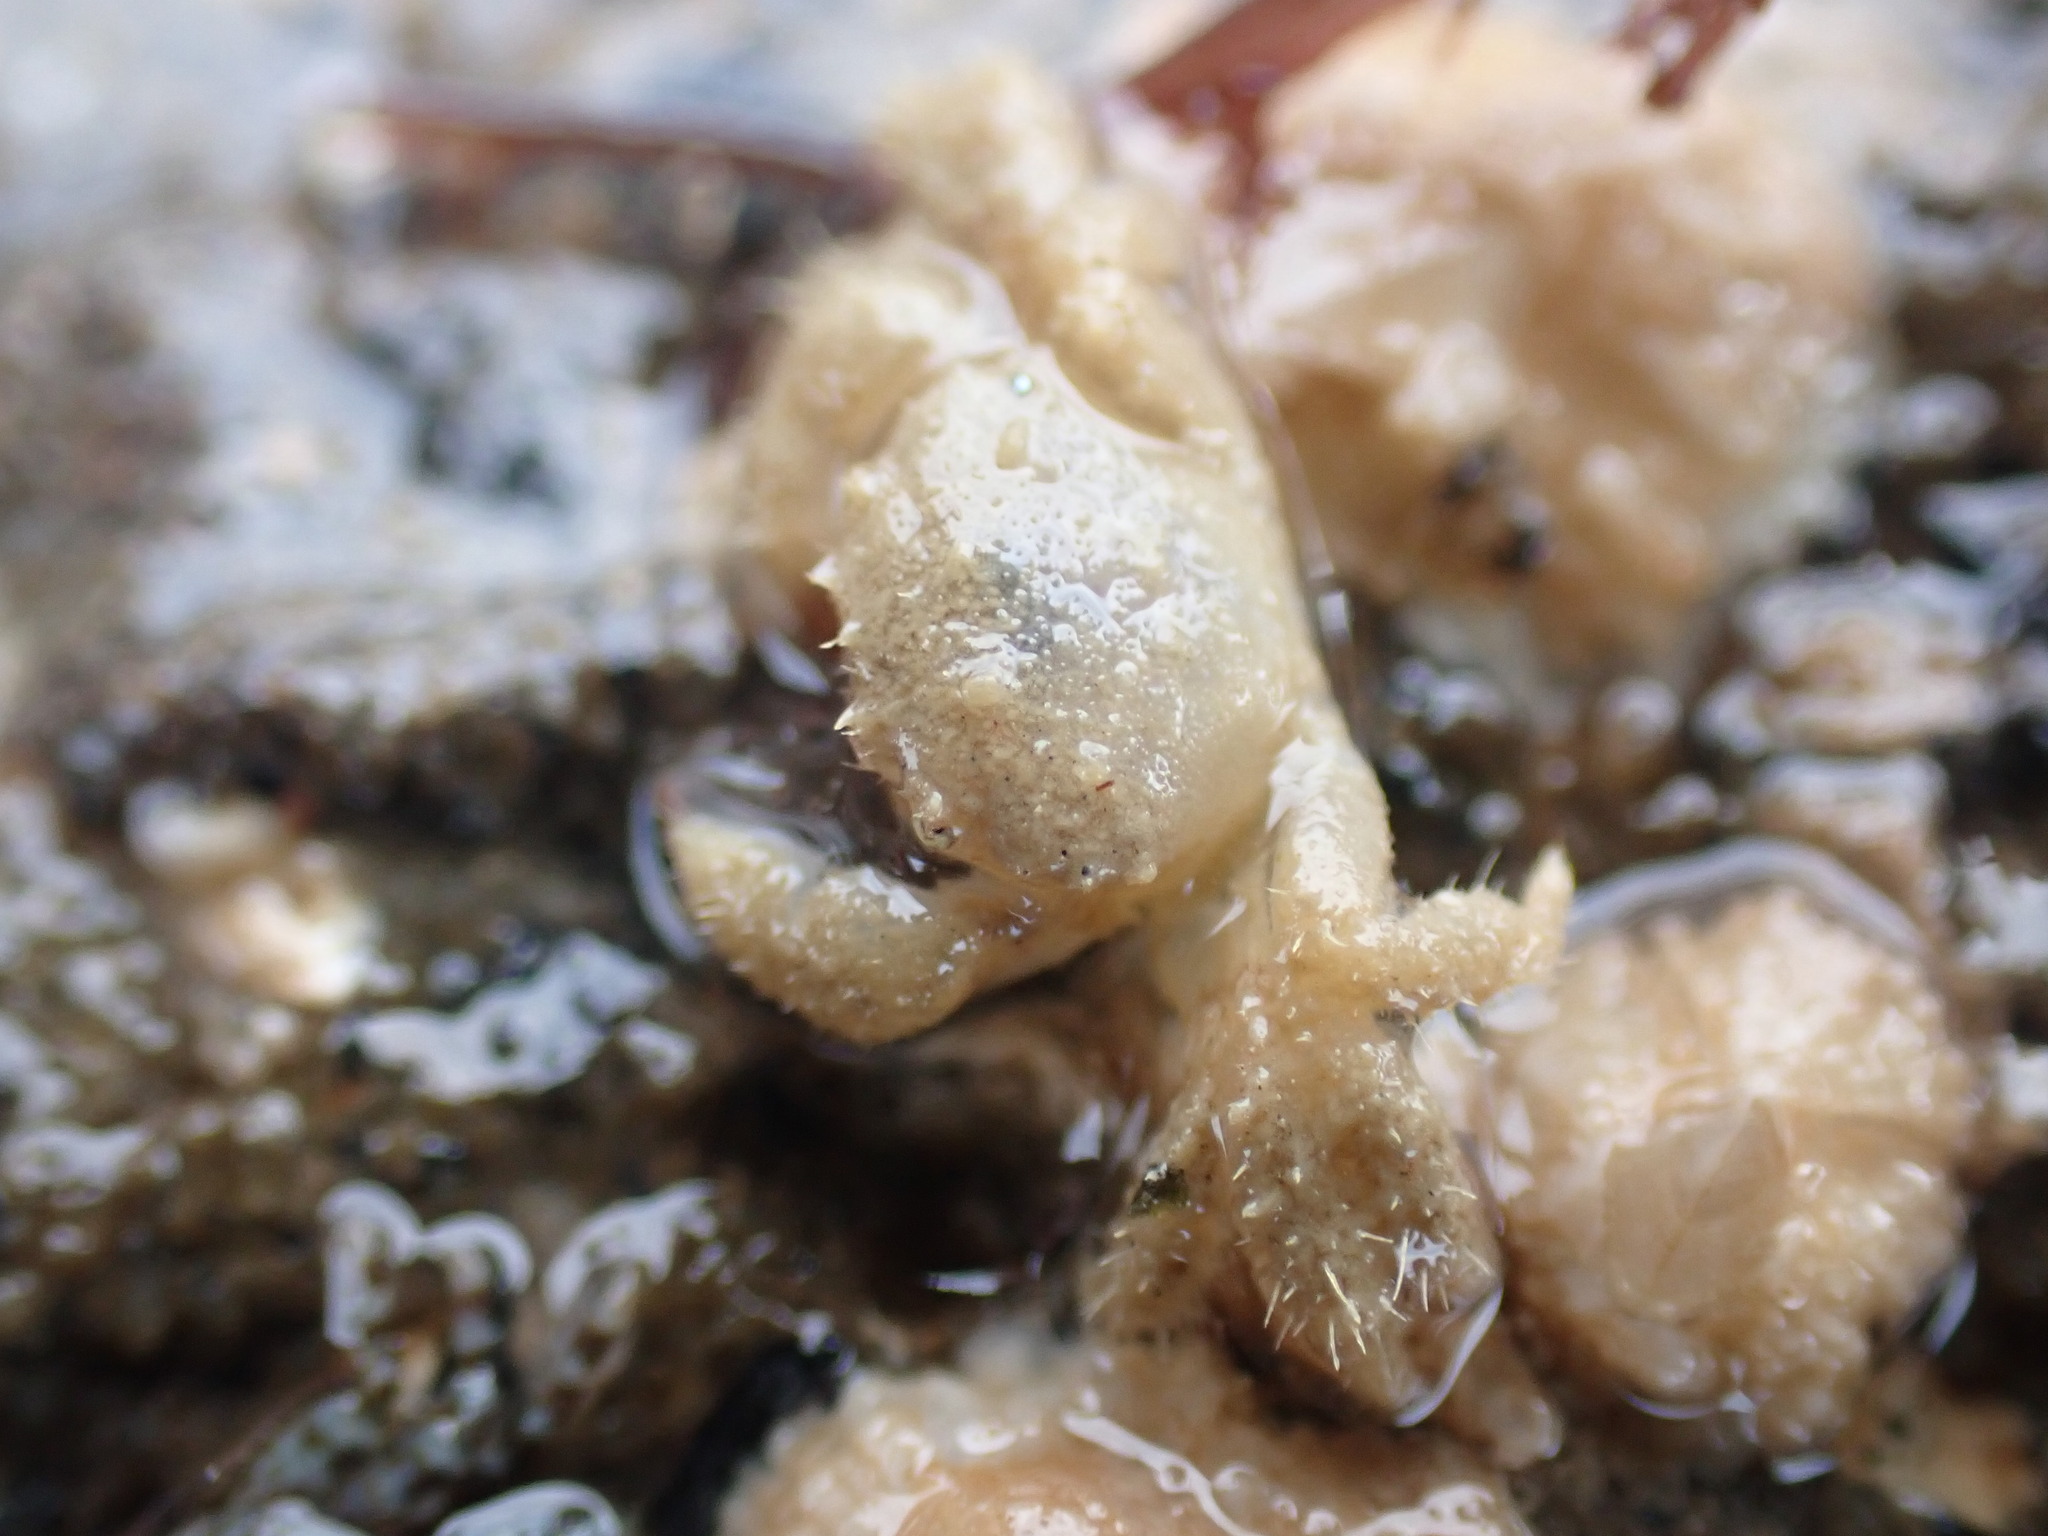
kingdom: Animalia
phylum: Arthropoda
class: Malacostraca
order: Decapoda
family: Pilumnidae
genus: Pilumnus
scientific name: Pilumnus lumpinus
